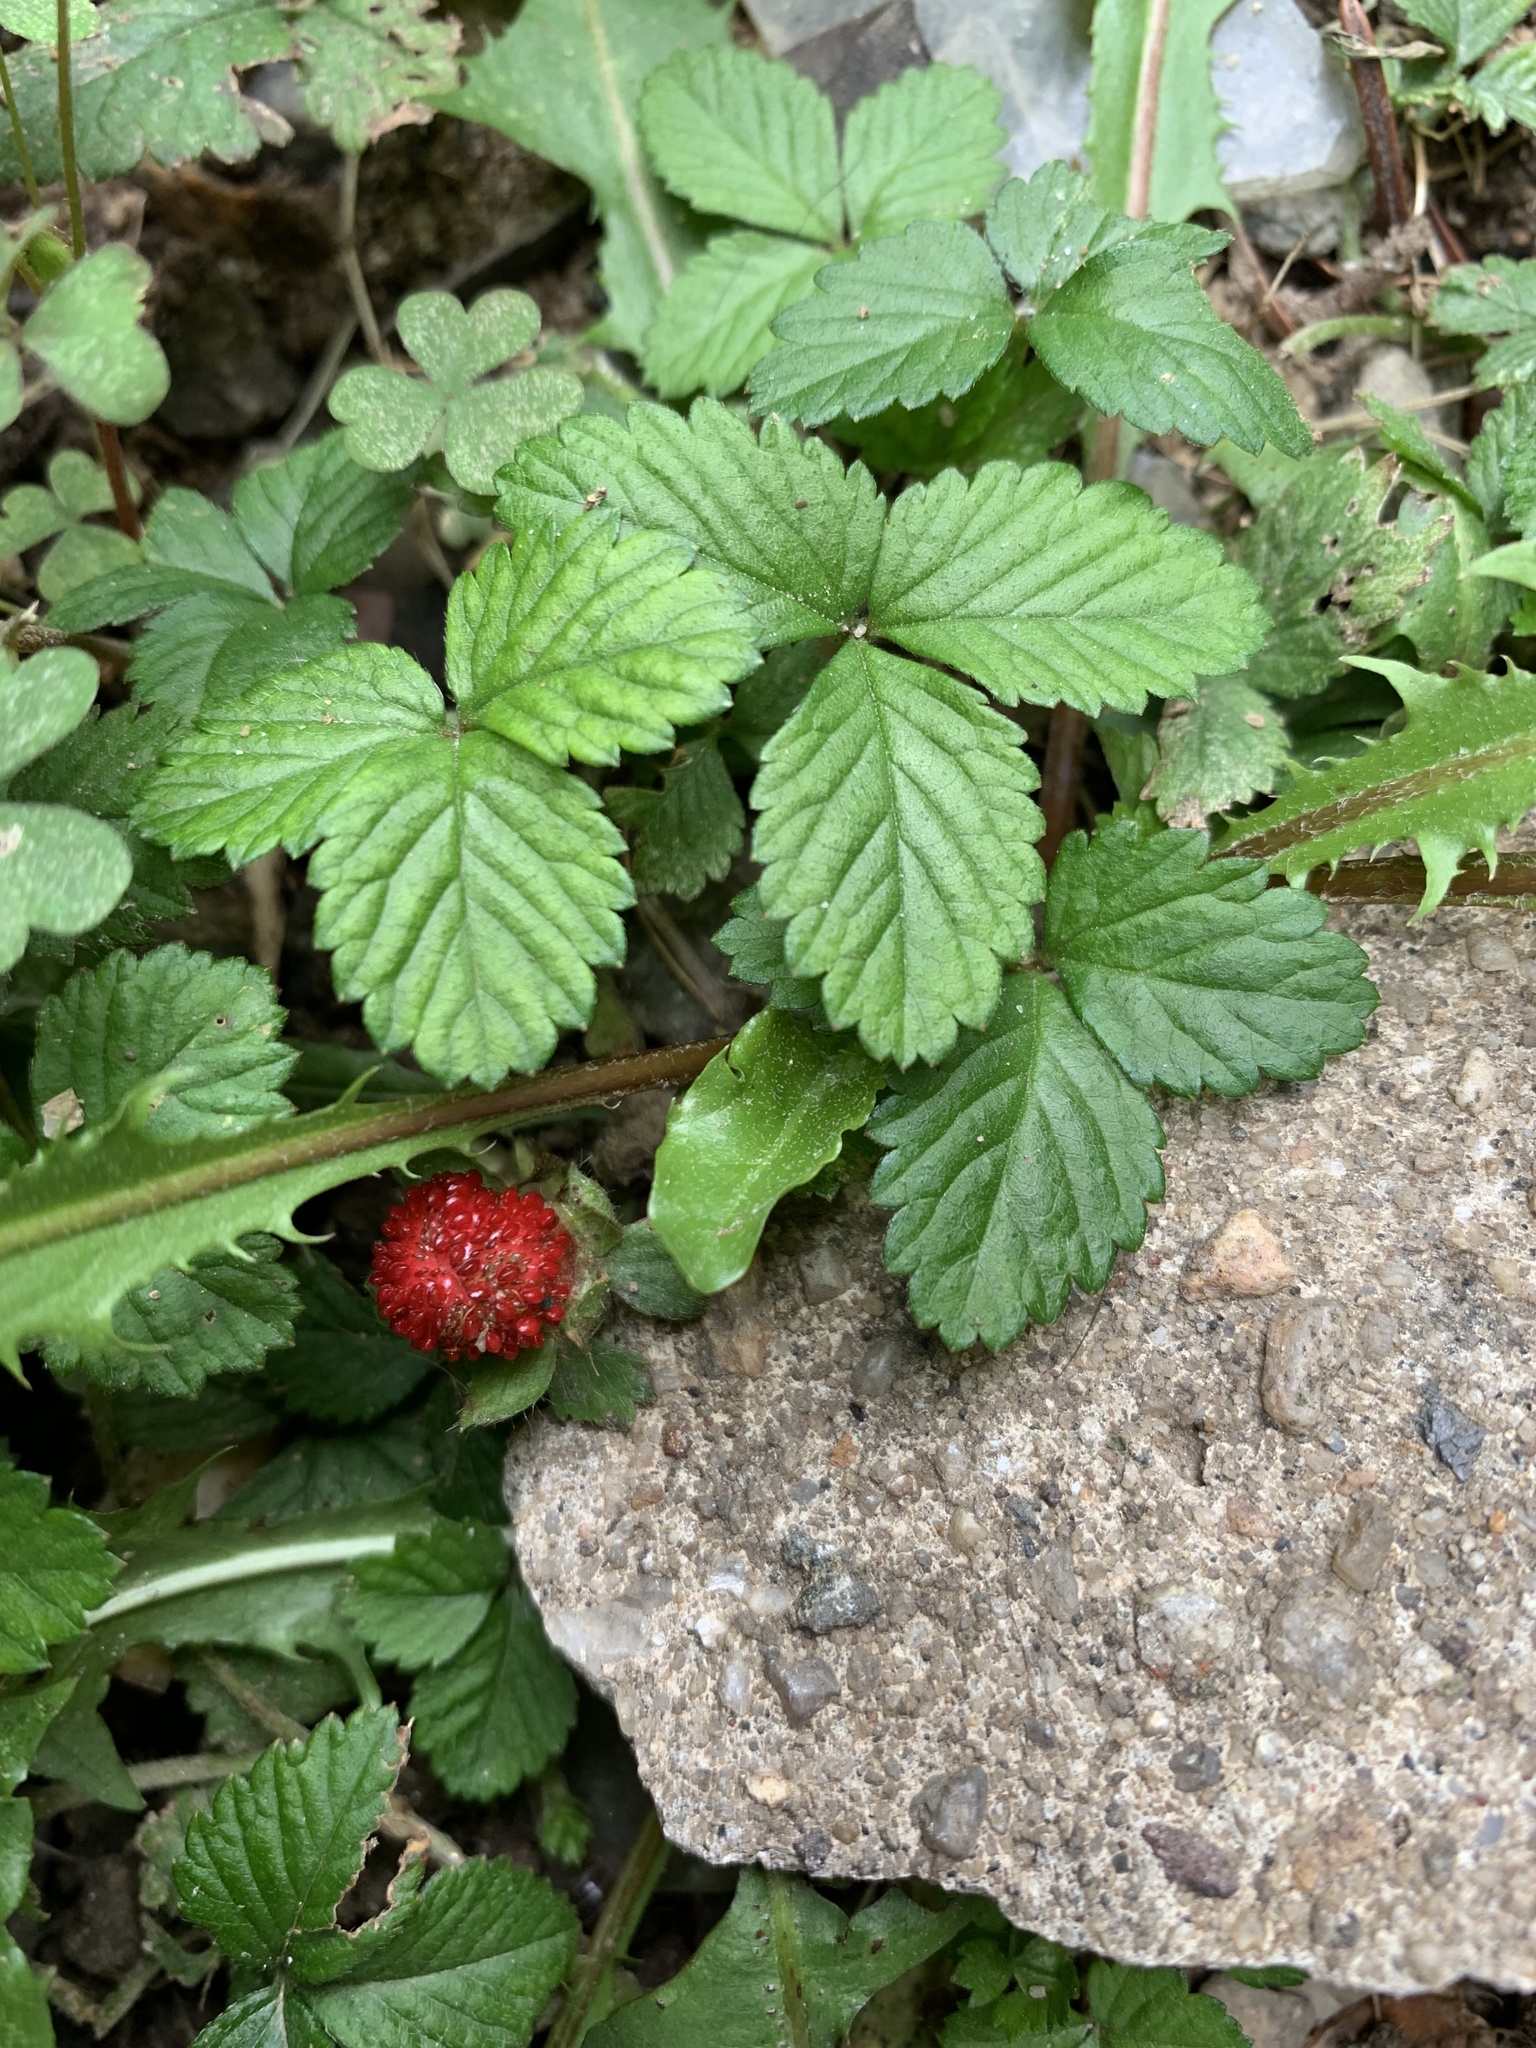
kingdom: Plantae
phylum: Tracheophyta
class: Magnoliopsida
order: Rosales
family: Rosaceae
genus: Potentilla
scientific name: Potentilla indica
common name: Yellow-flowered strawberry
